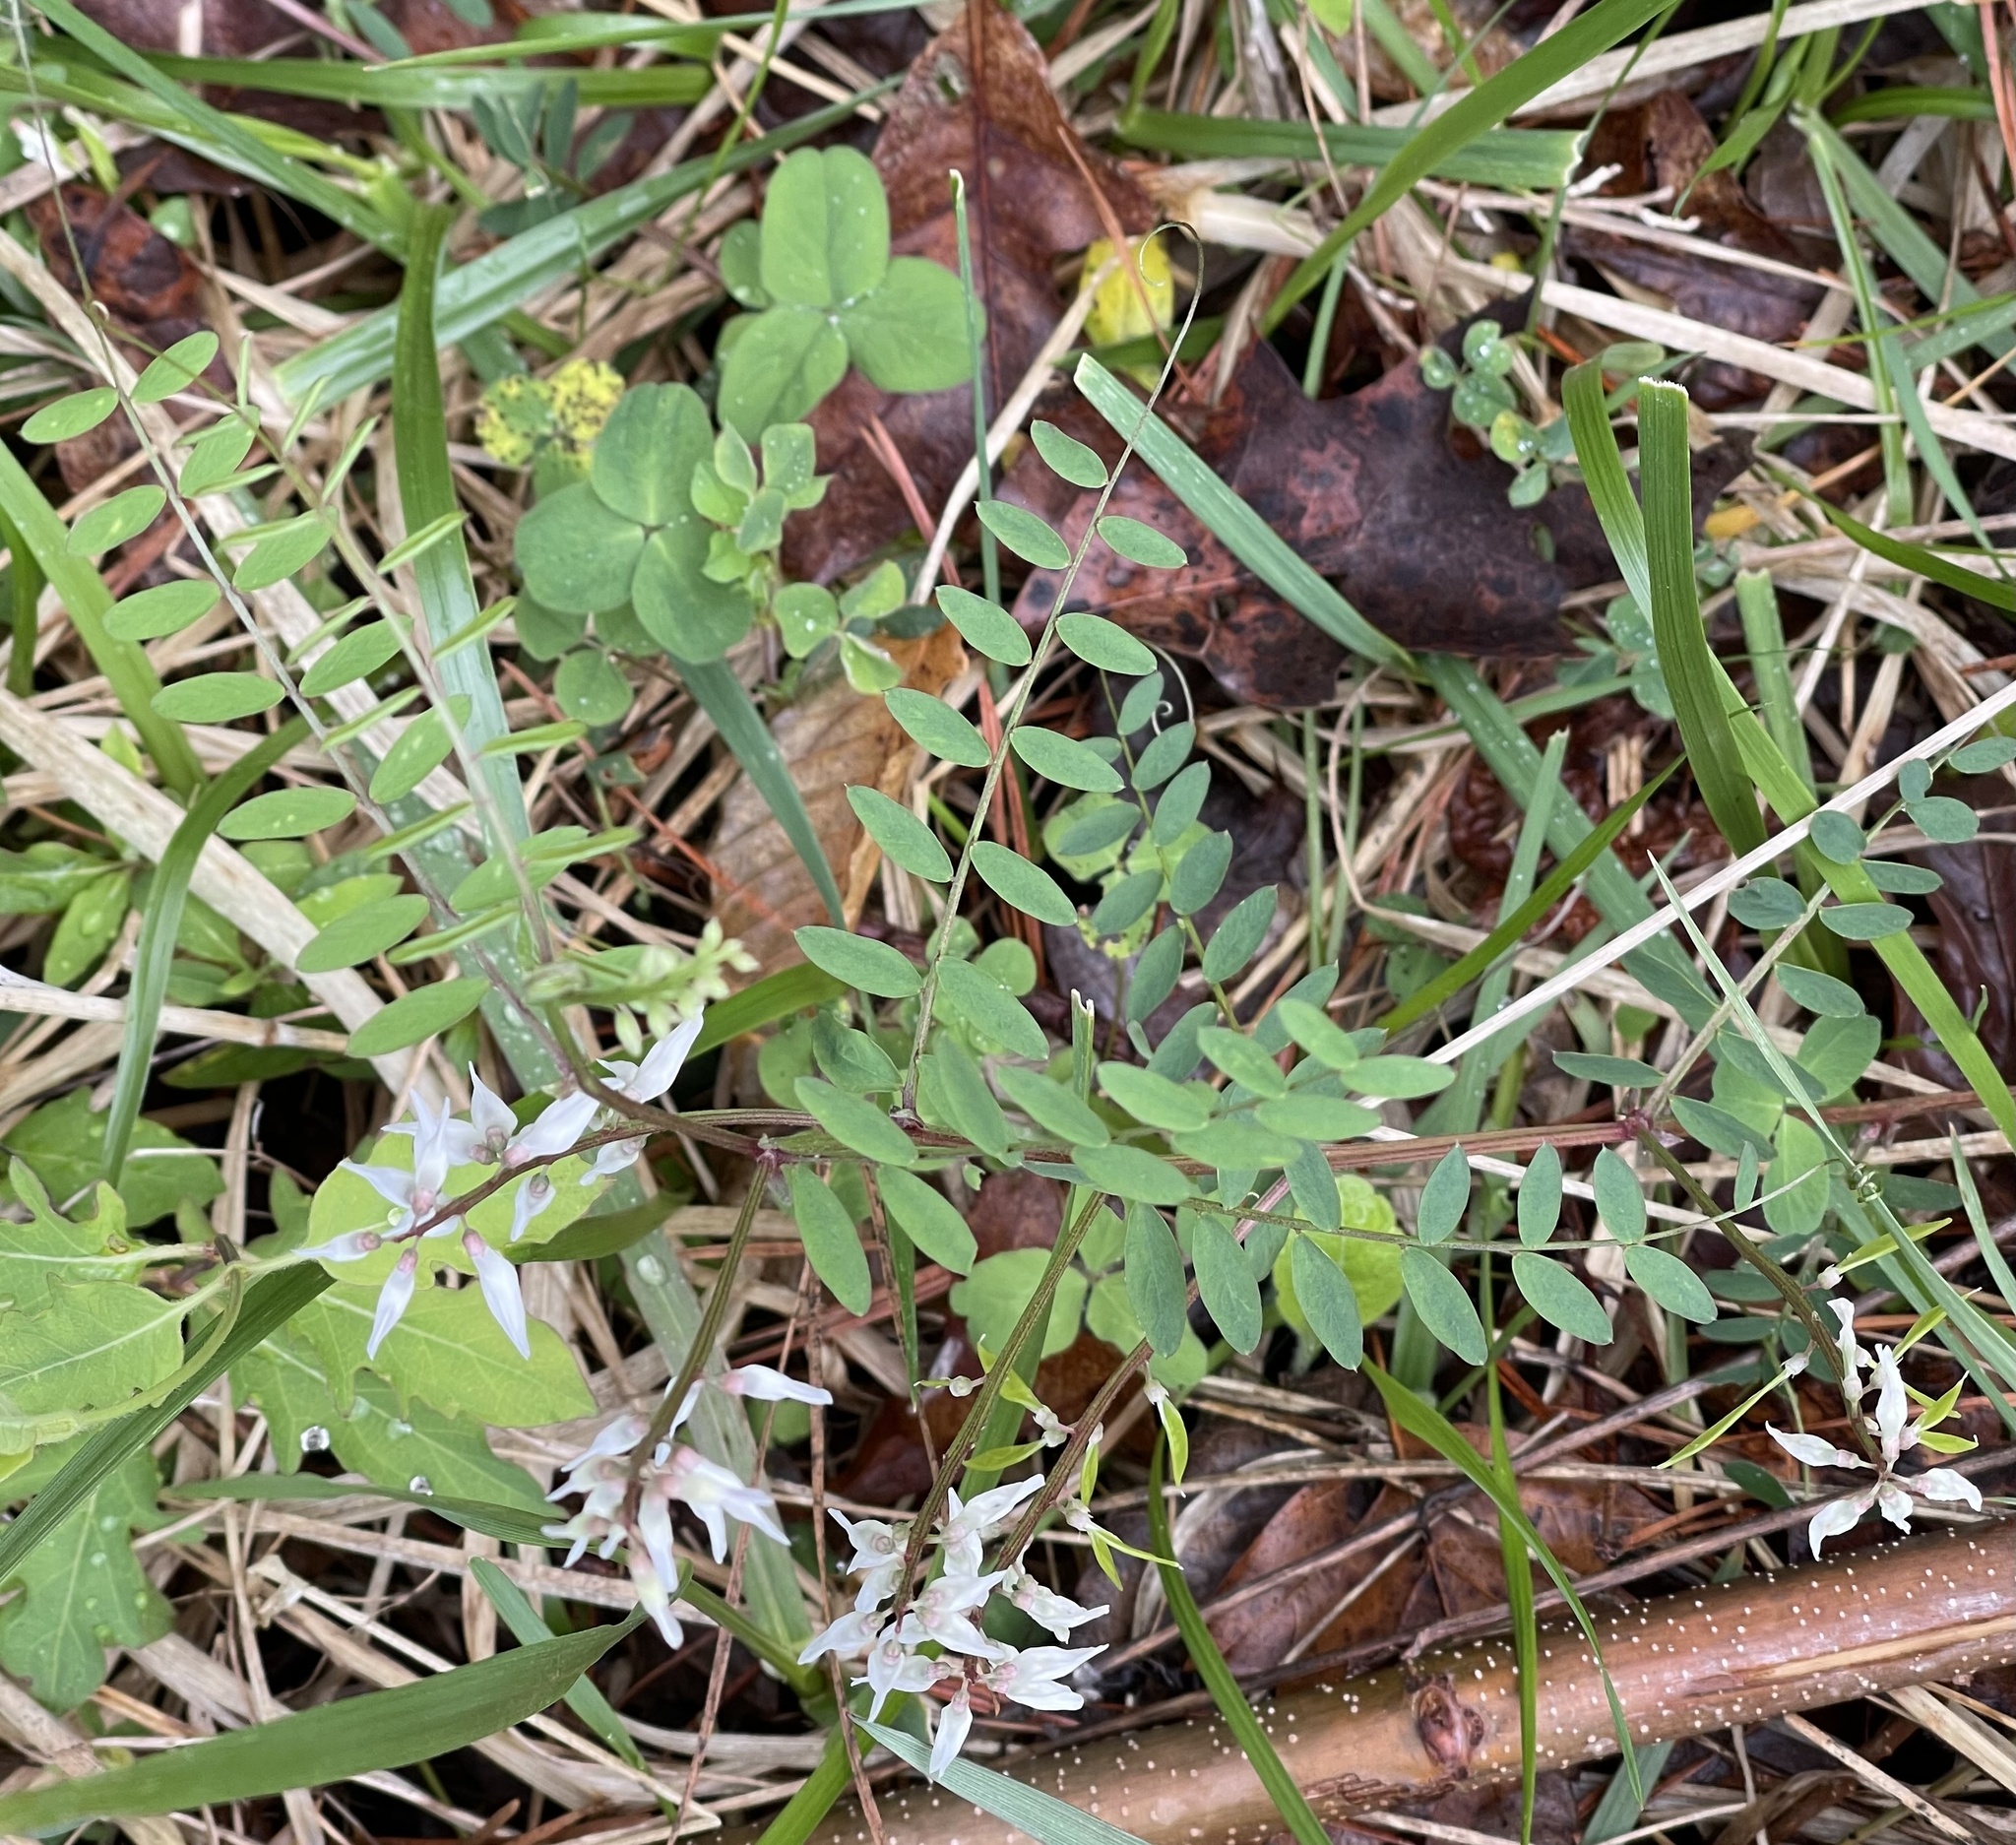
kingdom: Plantae
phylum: Tracheophyta
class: Magnoliopsida
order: Fabales
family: Fabaceae
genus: Vicia
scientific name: Vicia caroliniana
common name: Carolina vetch
